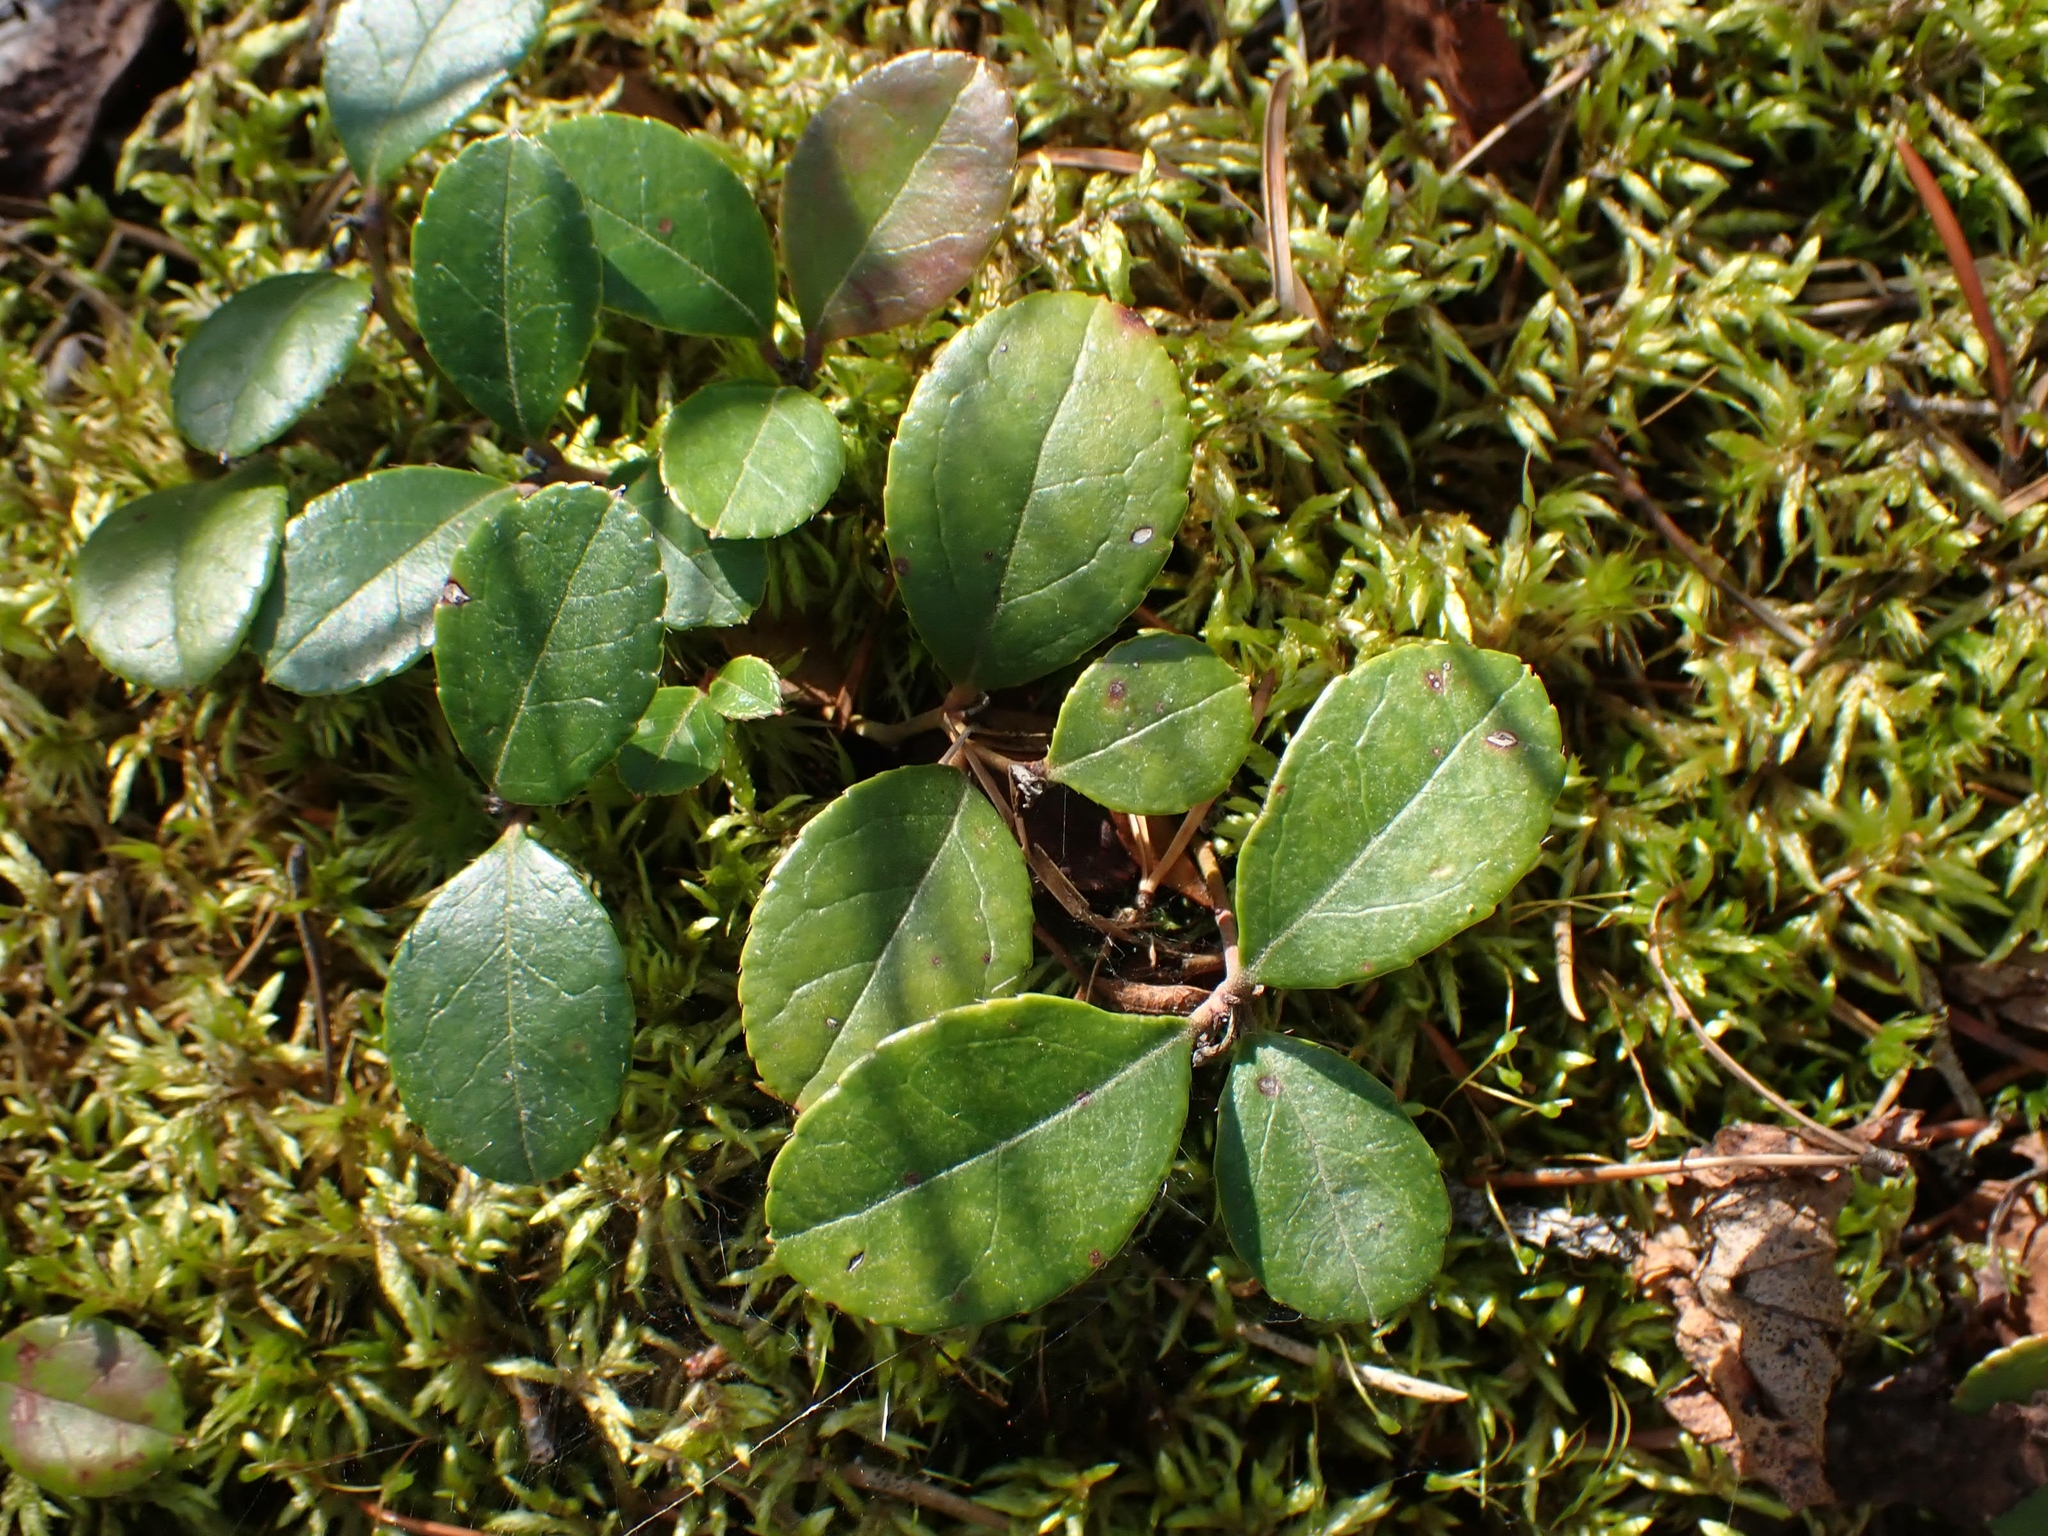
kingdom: Plantae
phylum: Tracheophyta
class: Magnoliopsida
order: Ericales
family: Ericaceae
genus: Gaultheria
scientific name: Gaultheria procumbens
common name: Checkerberry
